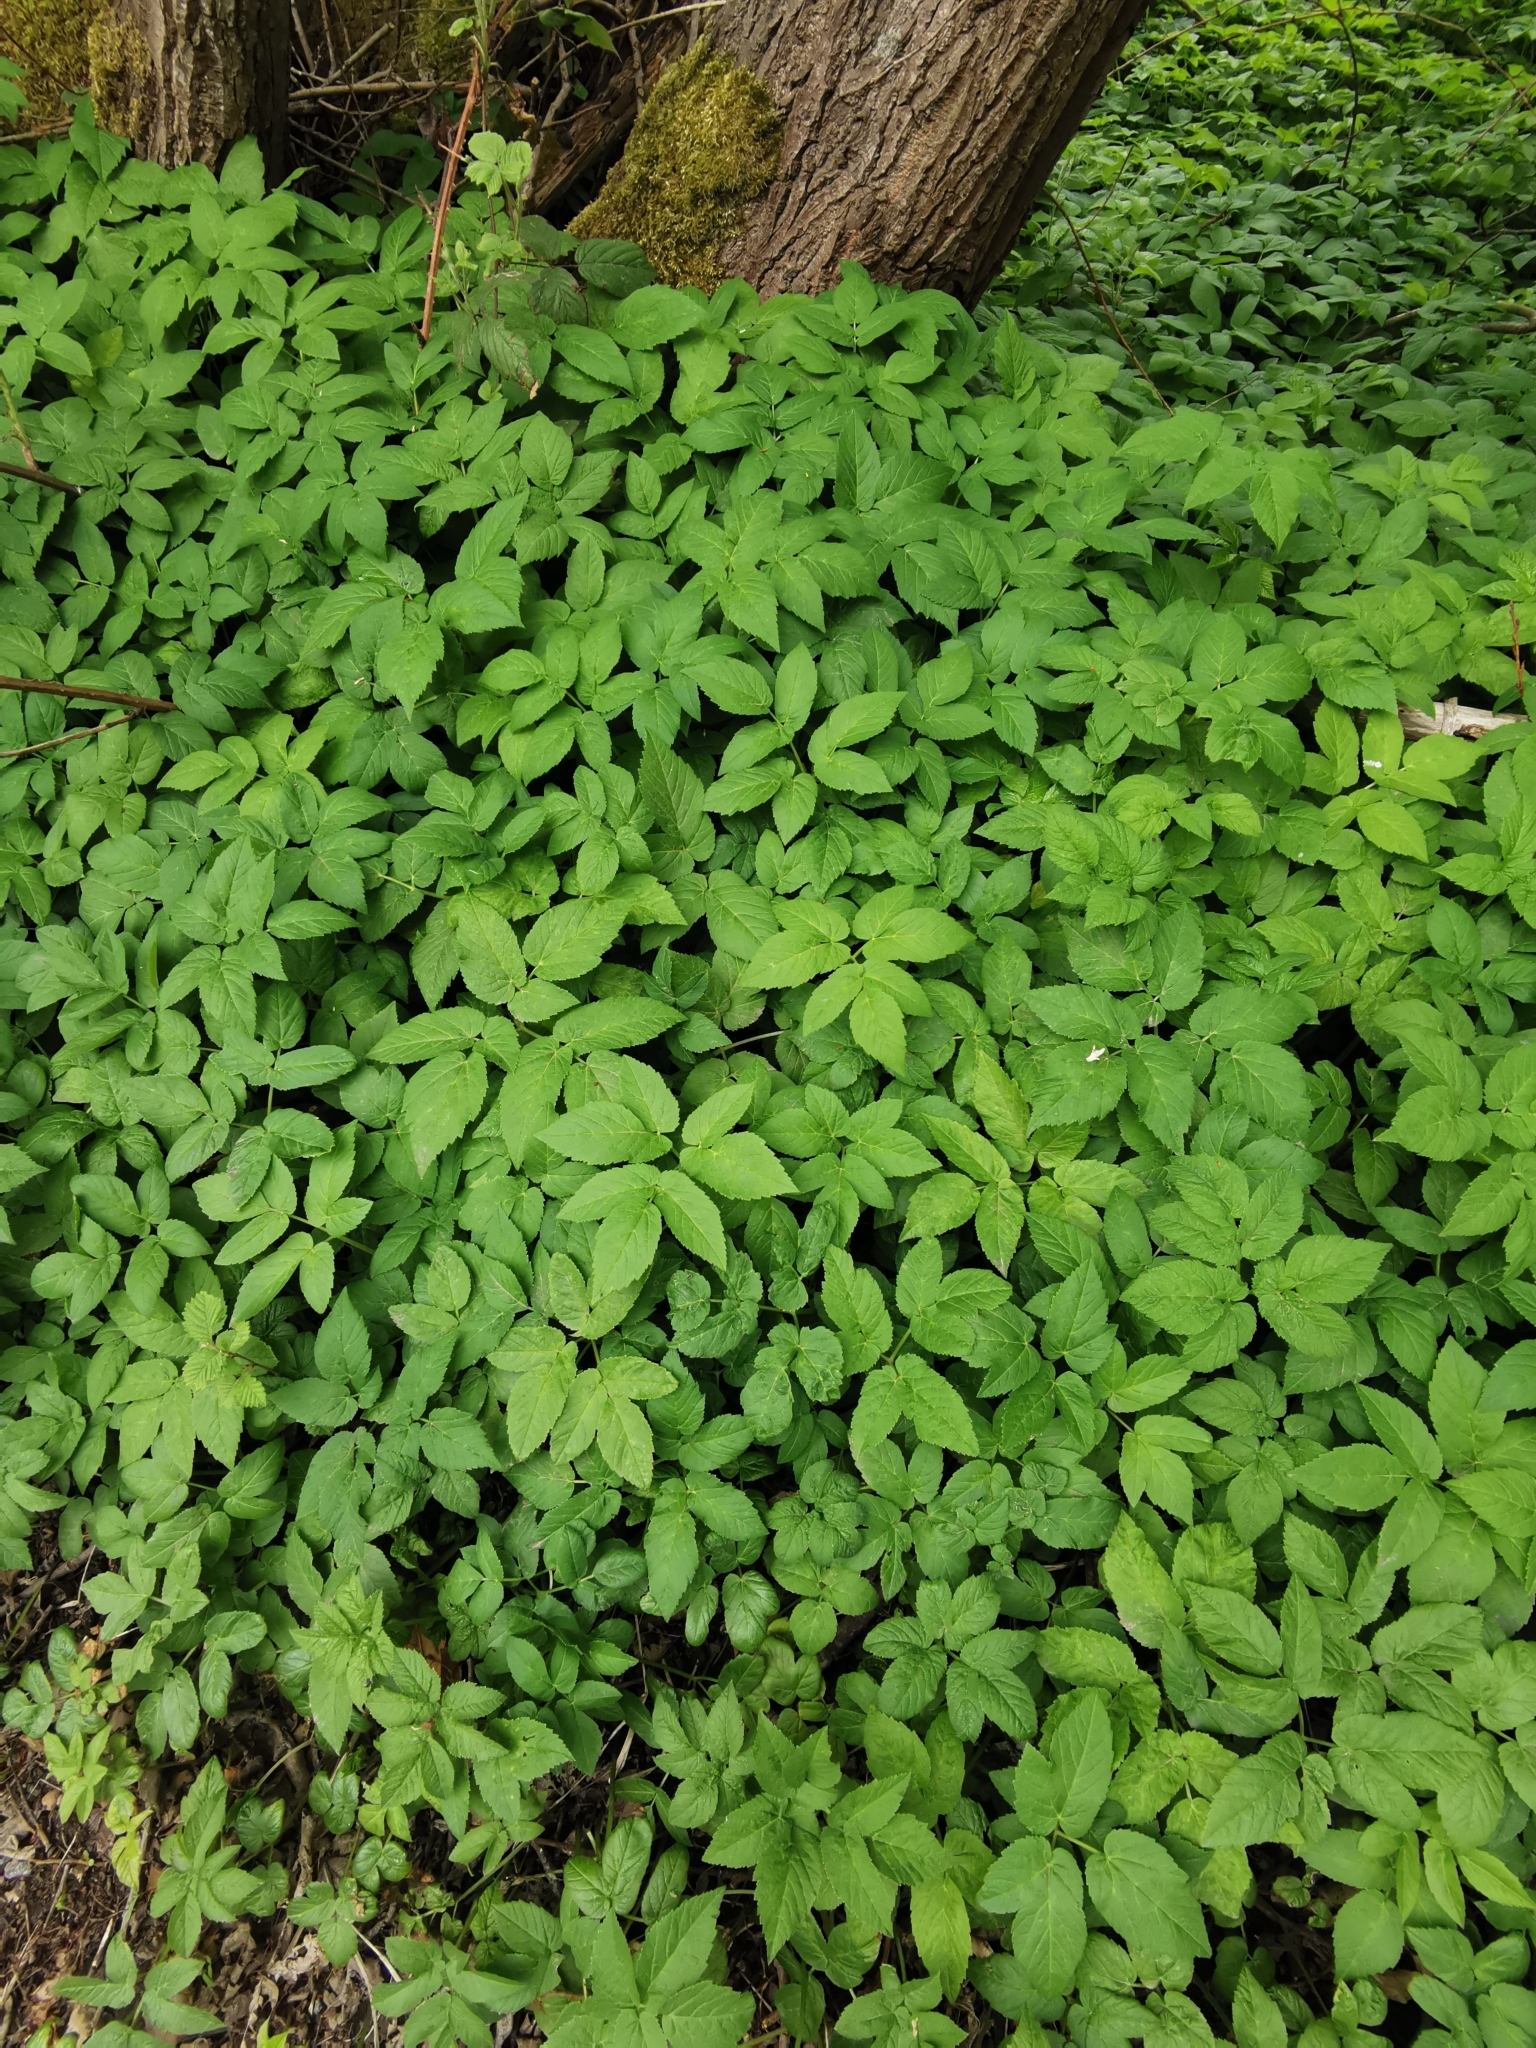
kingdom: Plantae
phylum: Tracheophyta
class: Magnoliopsida
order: Apiales
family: Apiaceae
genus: Aegopodium
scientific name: Aegopodium podagraria
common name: Ground-elder
